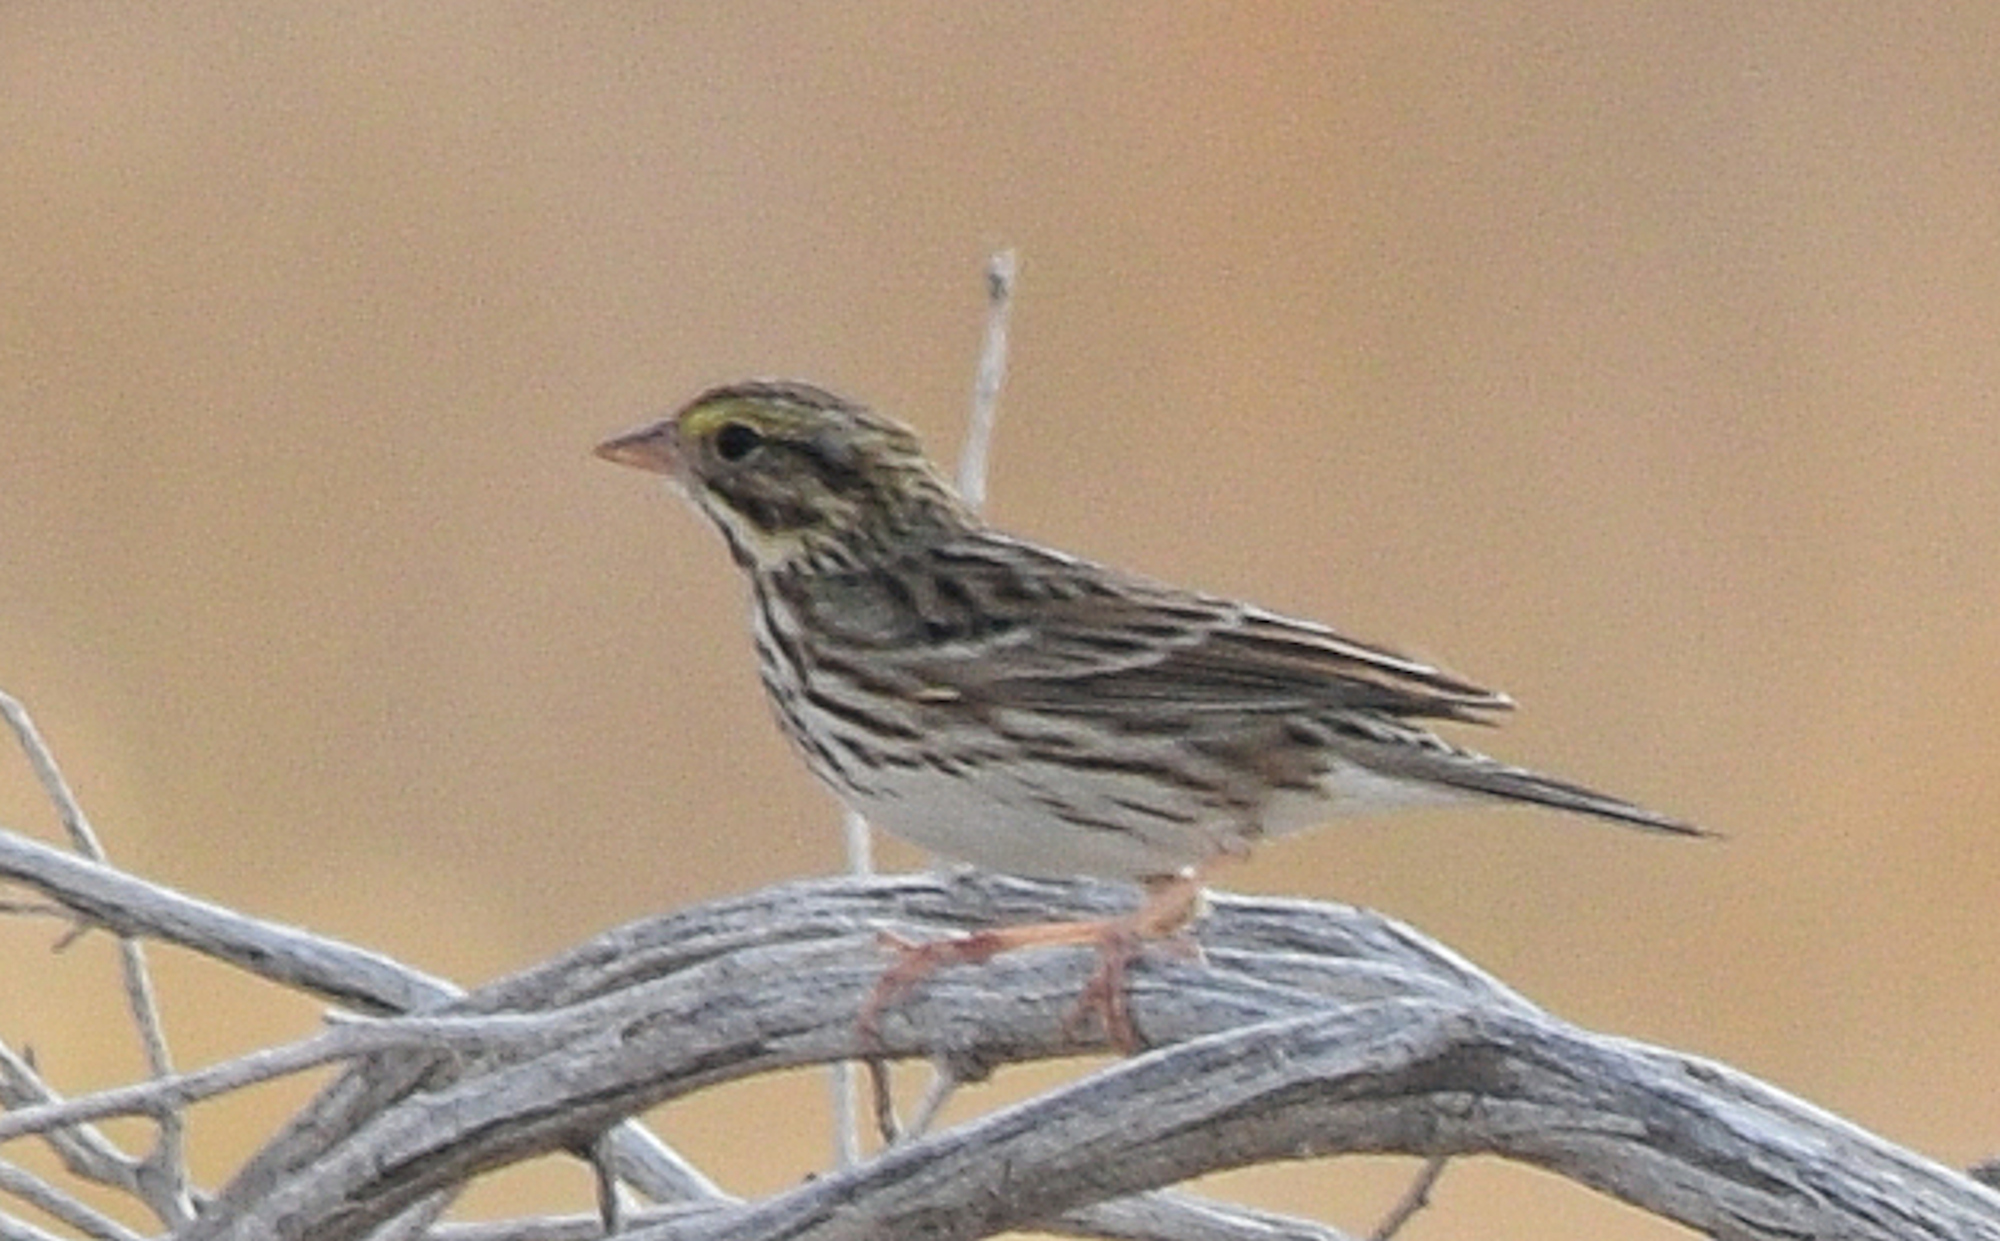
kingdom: Animalia
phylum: Chordata
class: Aves
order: Passeriformes
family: Passerellidae
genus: Passerculus
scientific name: Passerculus sandwichensis
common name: Savannah sparrow
